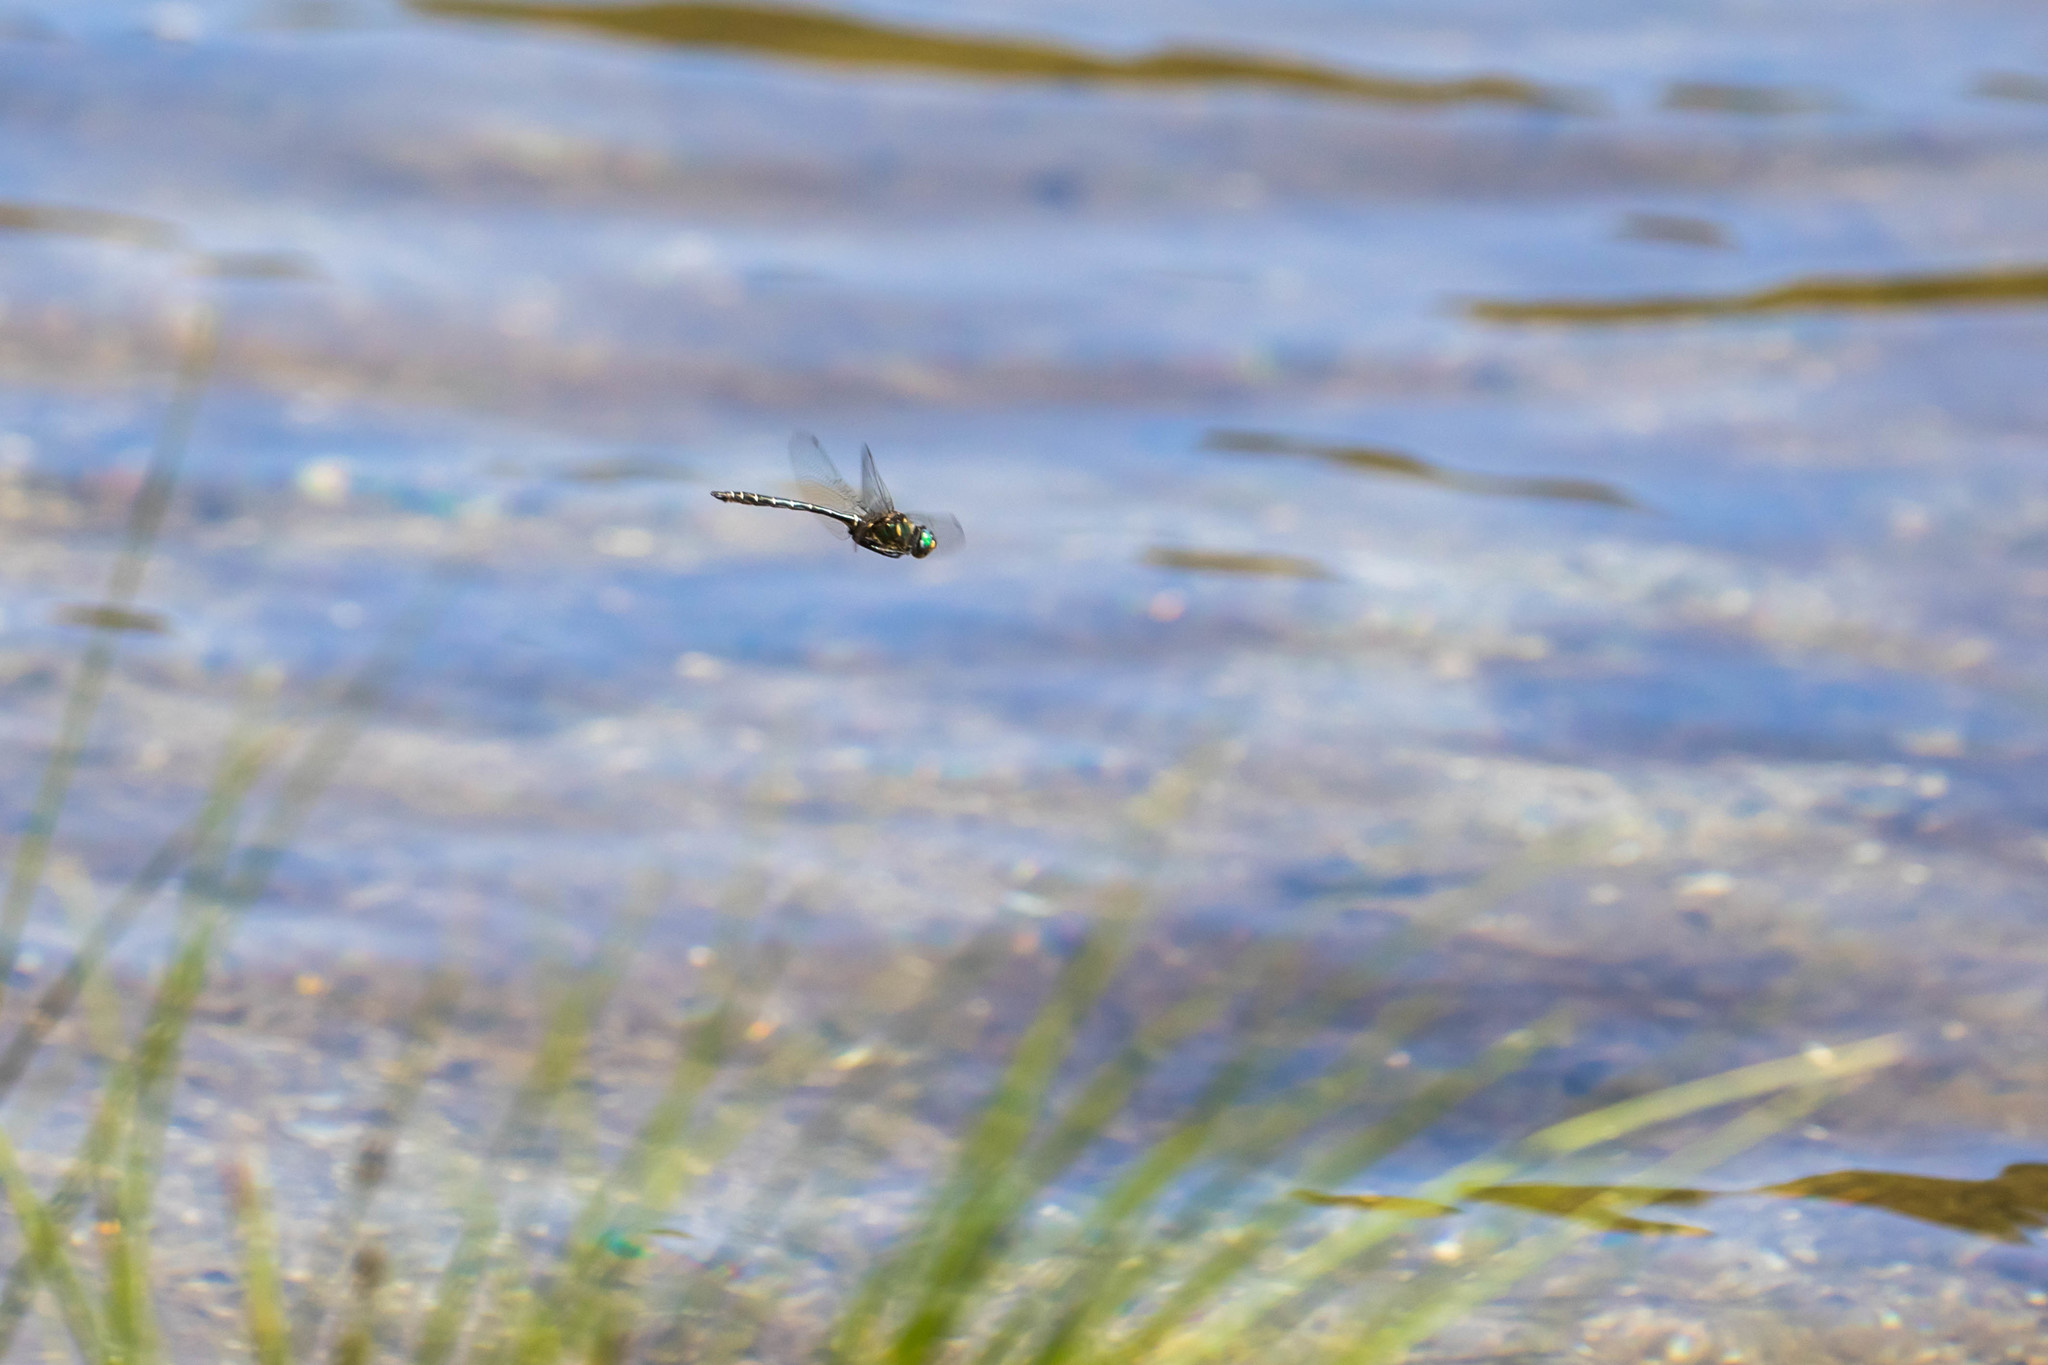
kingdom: Animalia
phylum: Arthropoda
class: Insecta
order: Odonata
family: Corduliidae
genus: Somatochlora
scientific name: Somatochlora albicincta
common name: Ringed emerald
